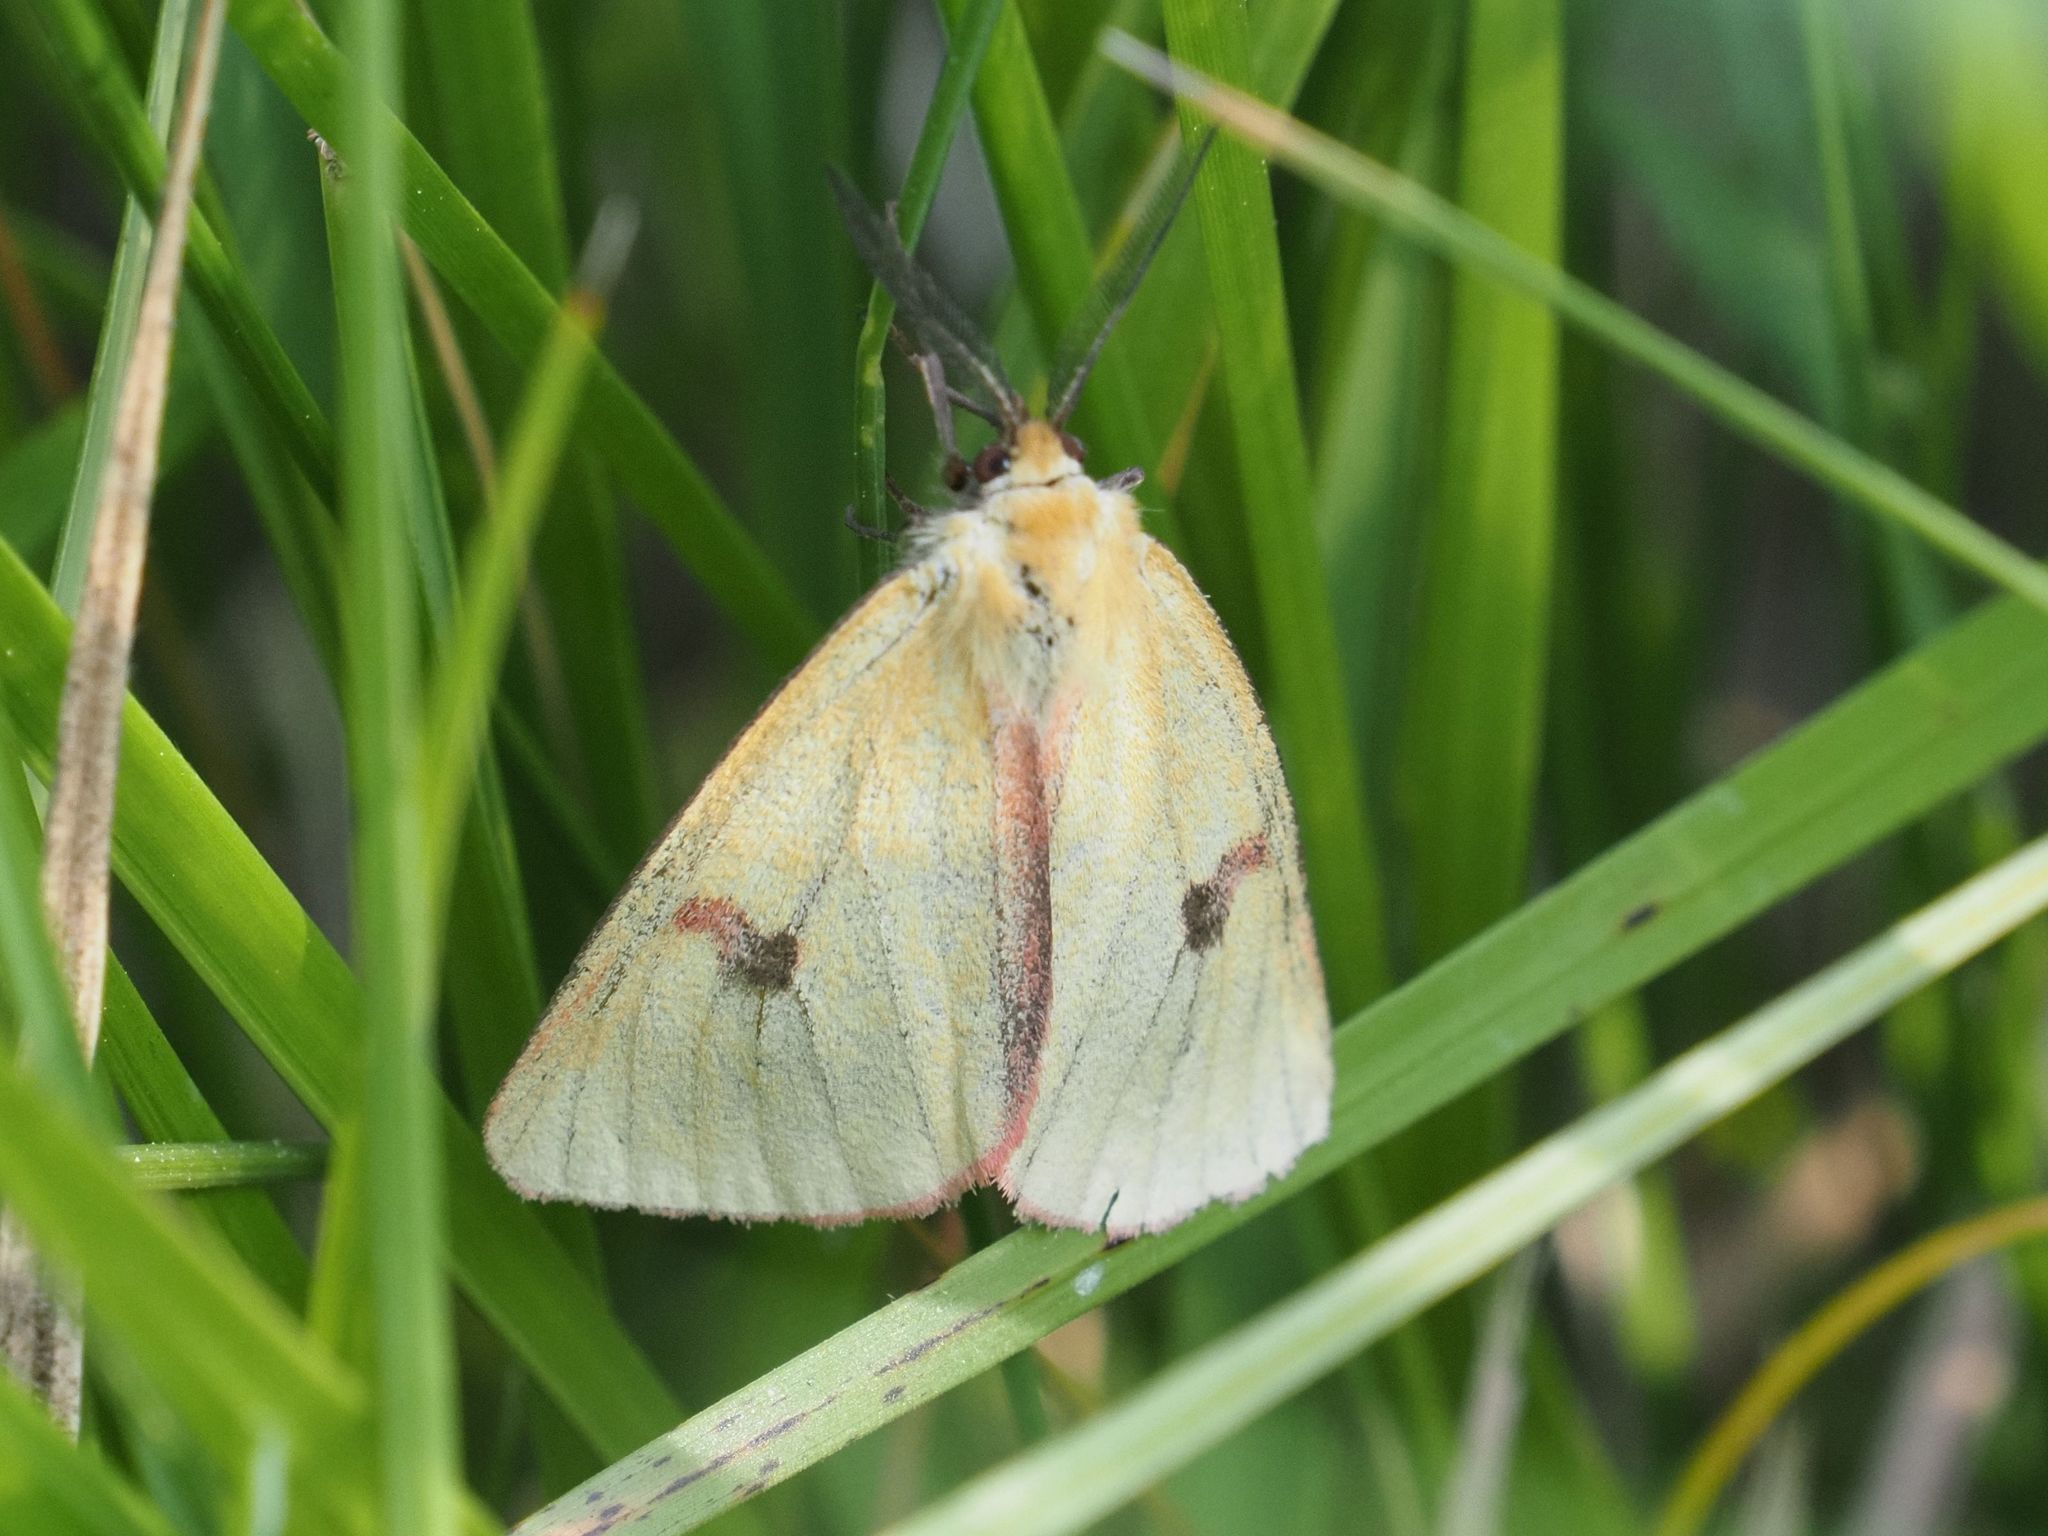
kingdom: Animalia
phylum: Arthropoda
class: Insecta
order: Lepidoptera
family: Erebidae
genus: Diacrisia
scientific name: Diacrisia sannio
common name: Clouded buff
